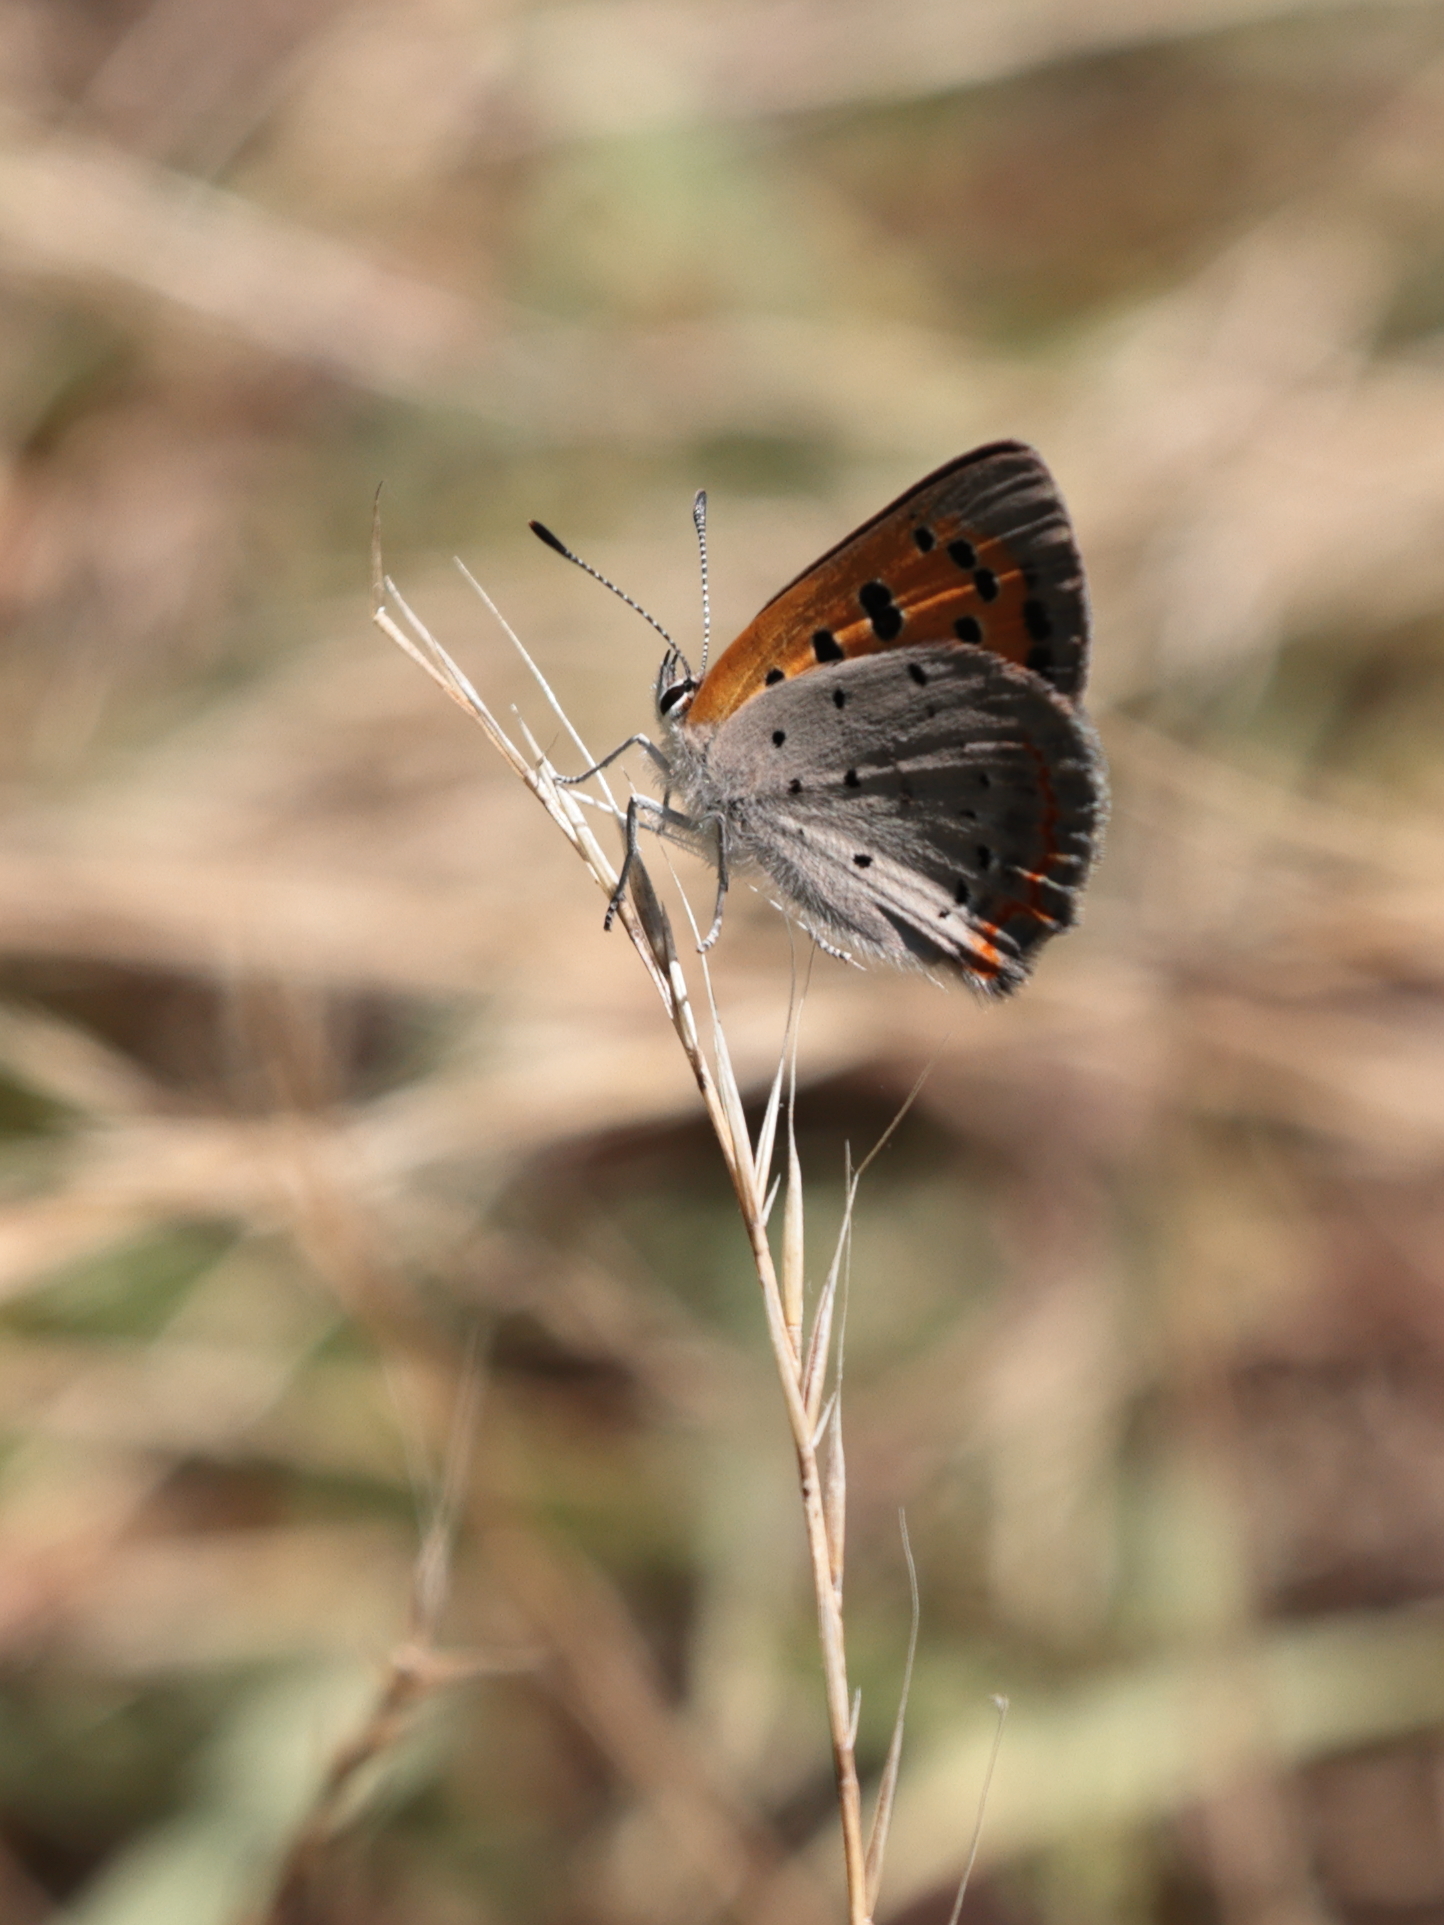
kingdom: Animalia
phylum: Arthropoda
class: Insecta
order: Lepidoptera
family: Lycaenidae
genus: Lycaena
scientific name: Lycaena hypophlaeas
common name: American copper
